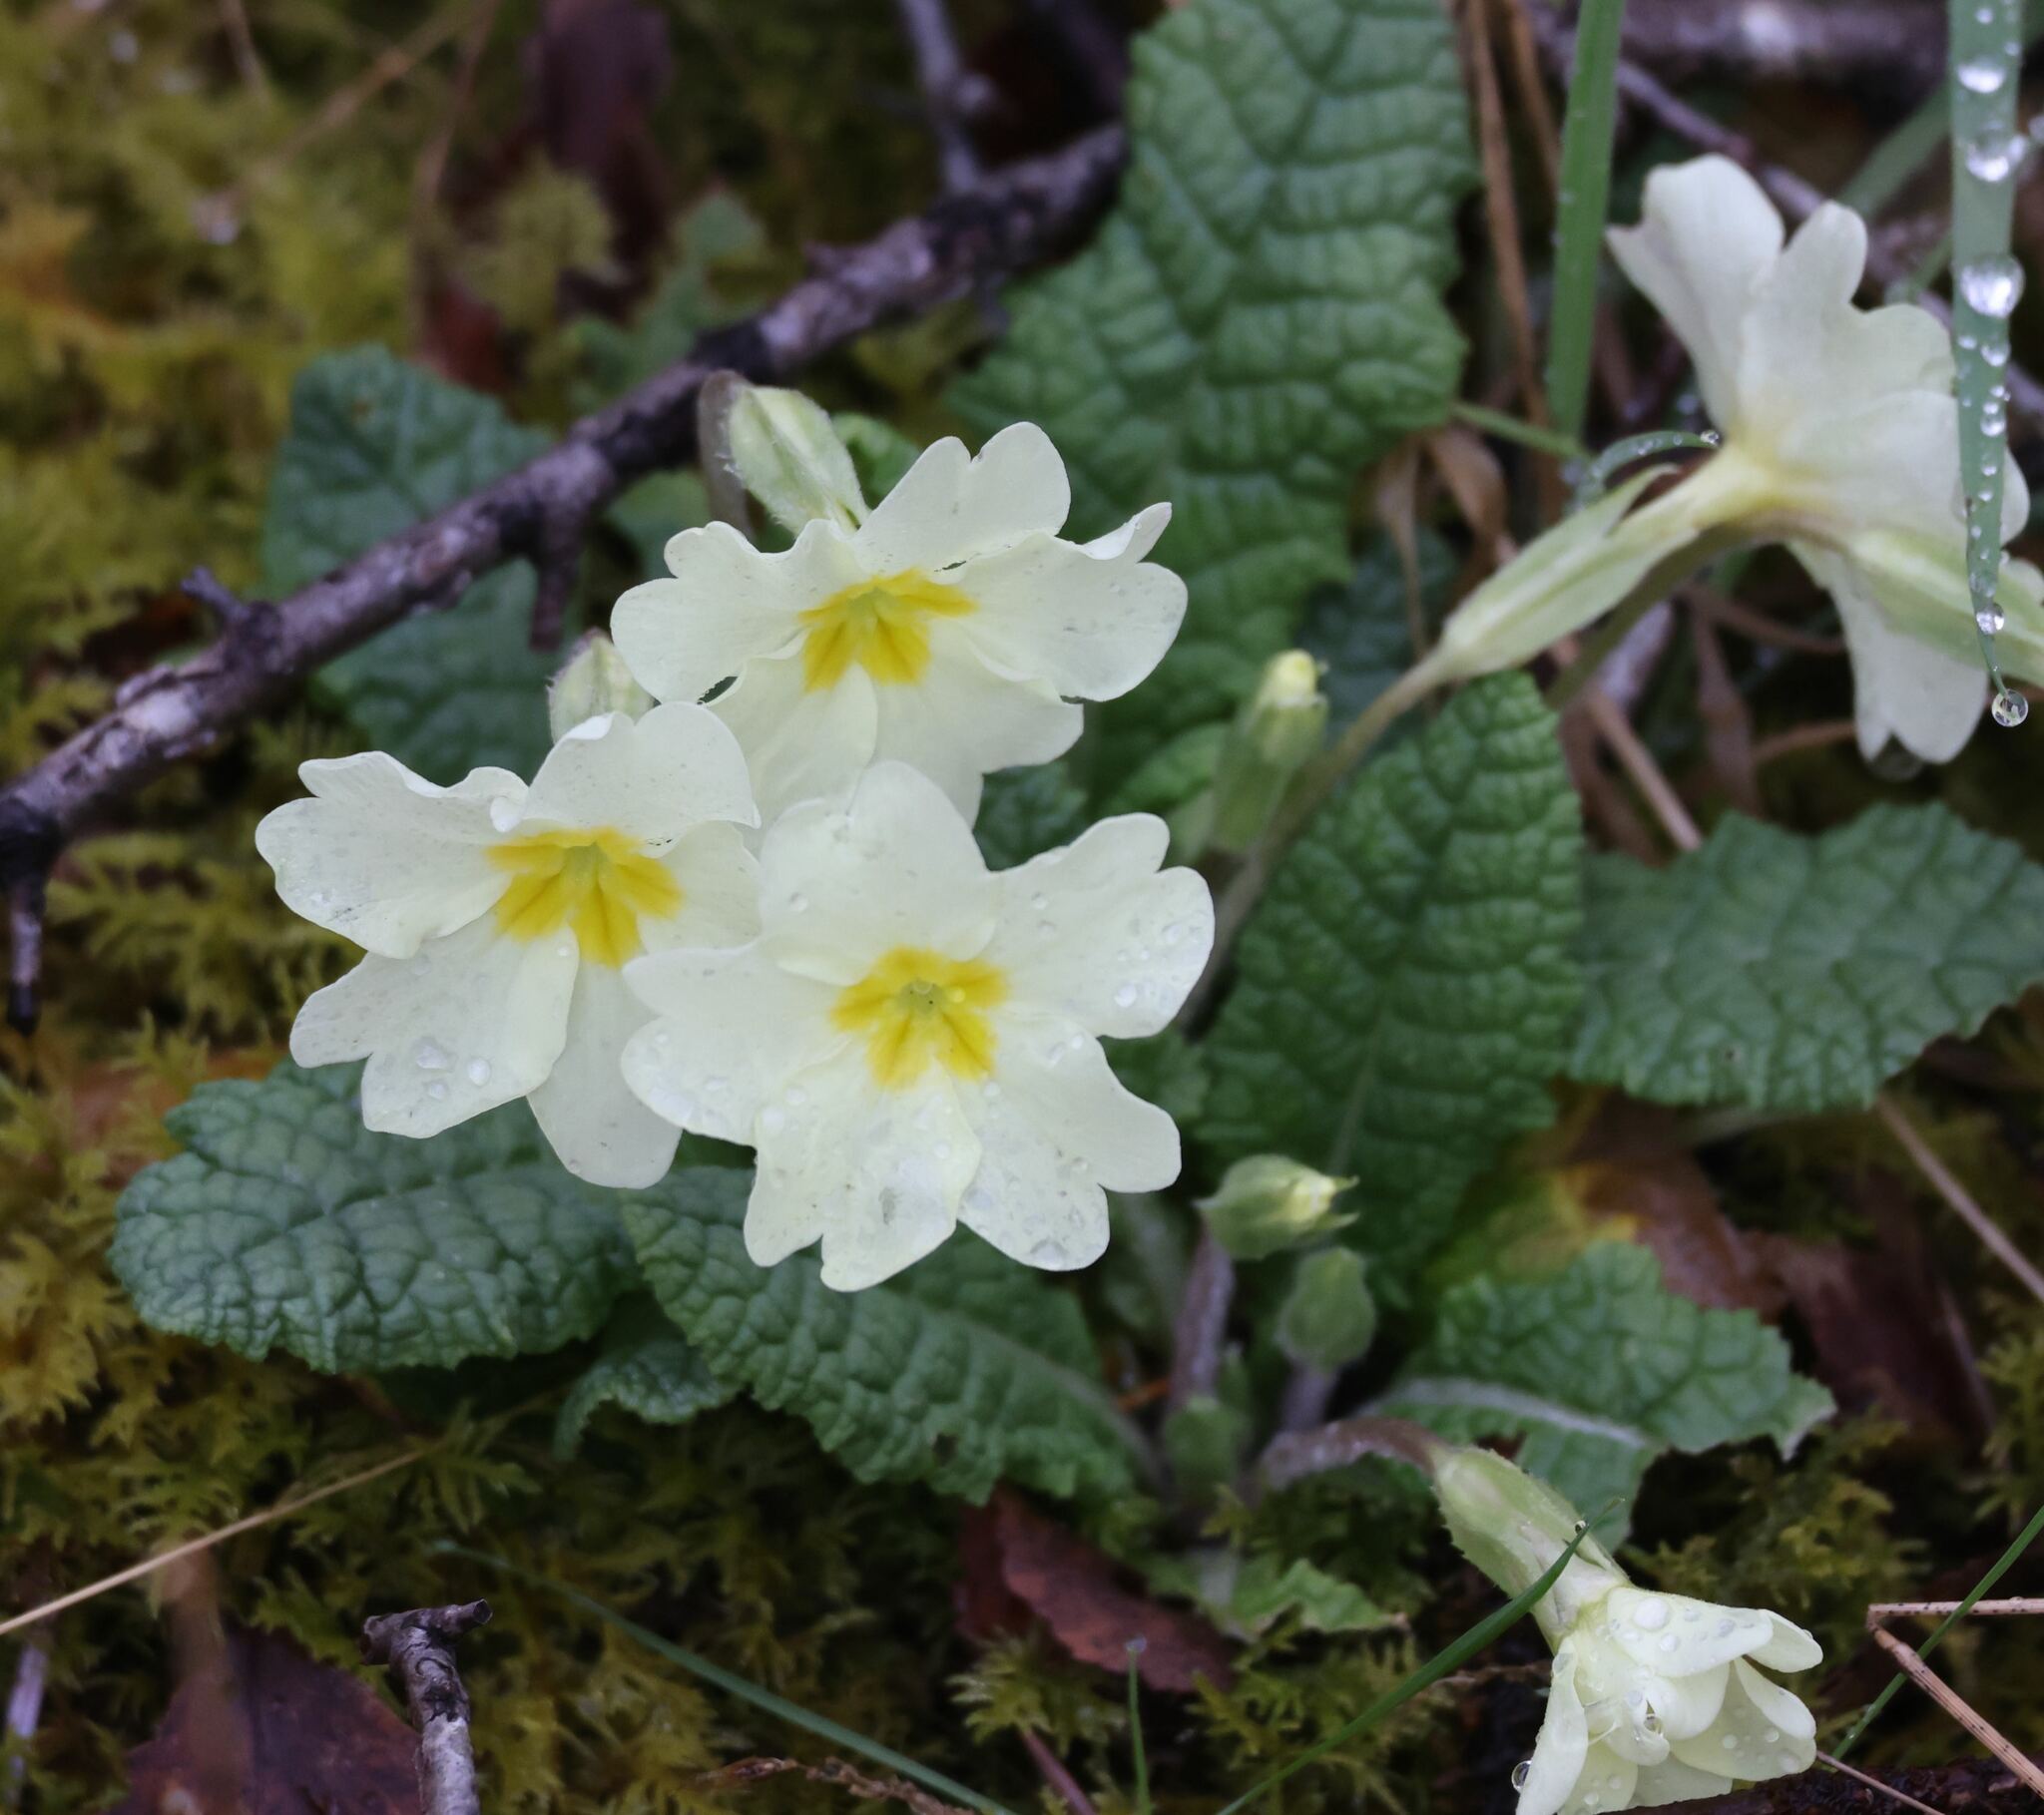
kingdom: Plantae
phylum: Tracheophyta
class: Magnoliopsida
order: Ericales
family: Primulaceae
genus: Primula
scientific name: Primula vulgaris
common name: Primrose
